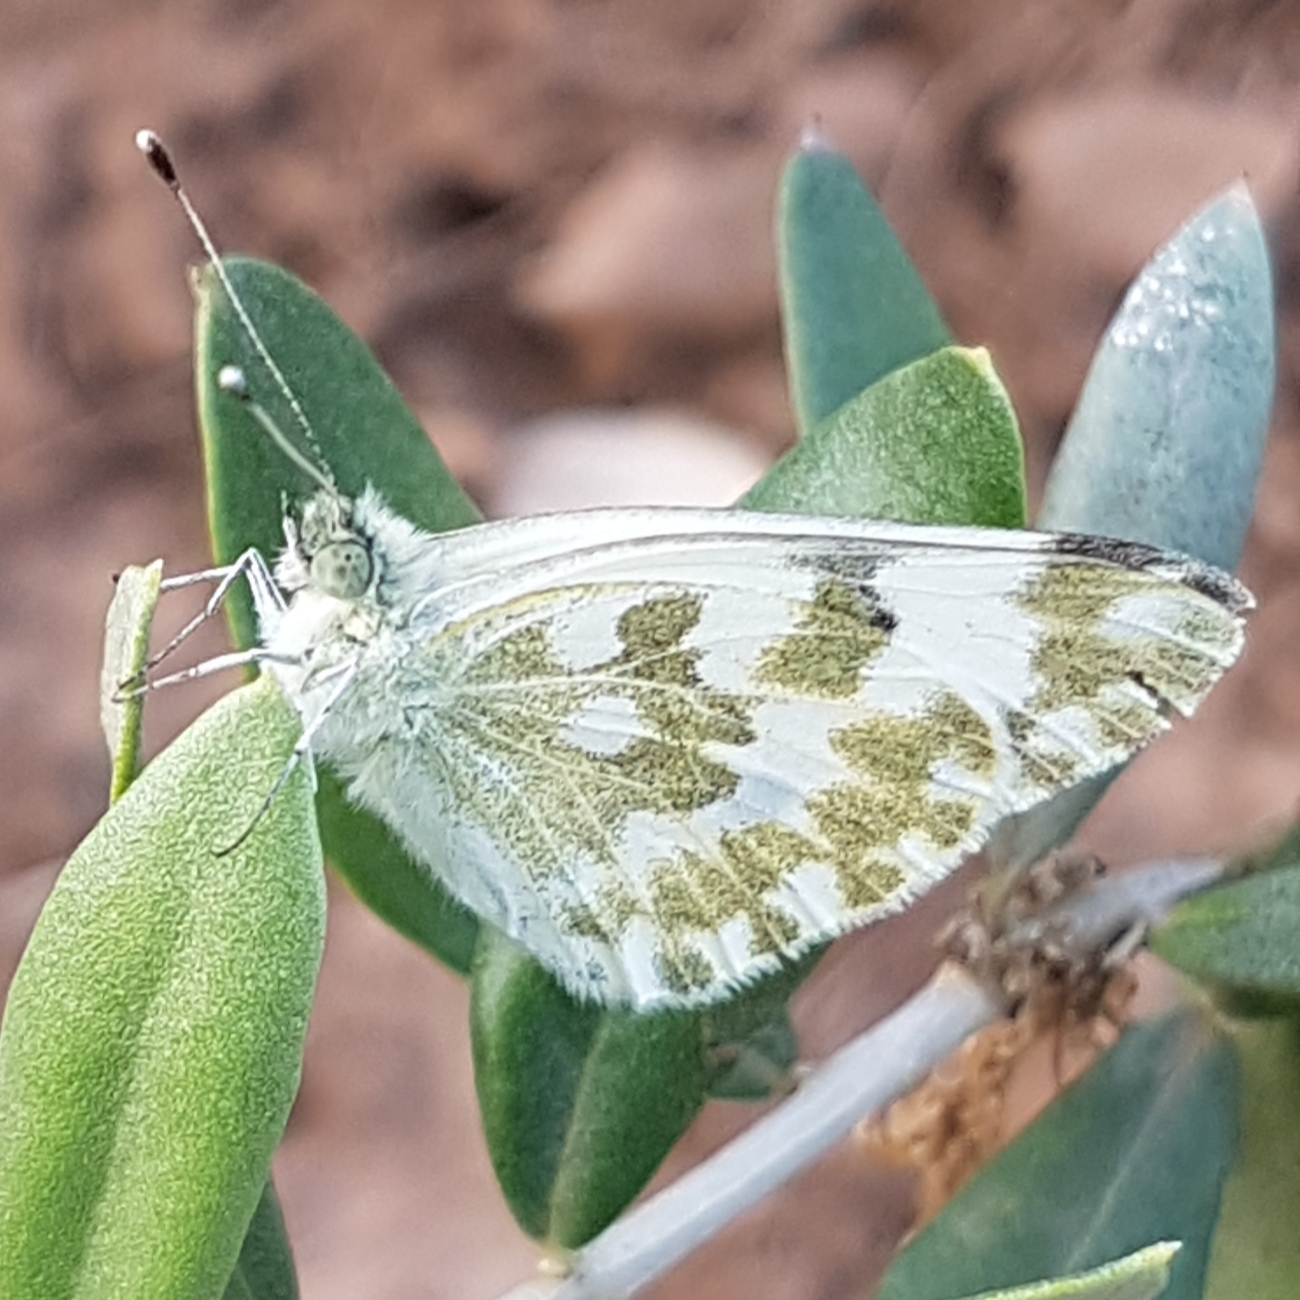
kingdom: Animalia
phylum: Arthropoda
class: Insecta
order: Lepidoptera
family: Pieridae
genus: Pontia
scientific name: Pontia daplidice
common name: Bath white
